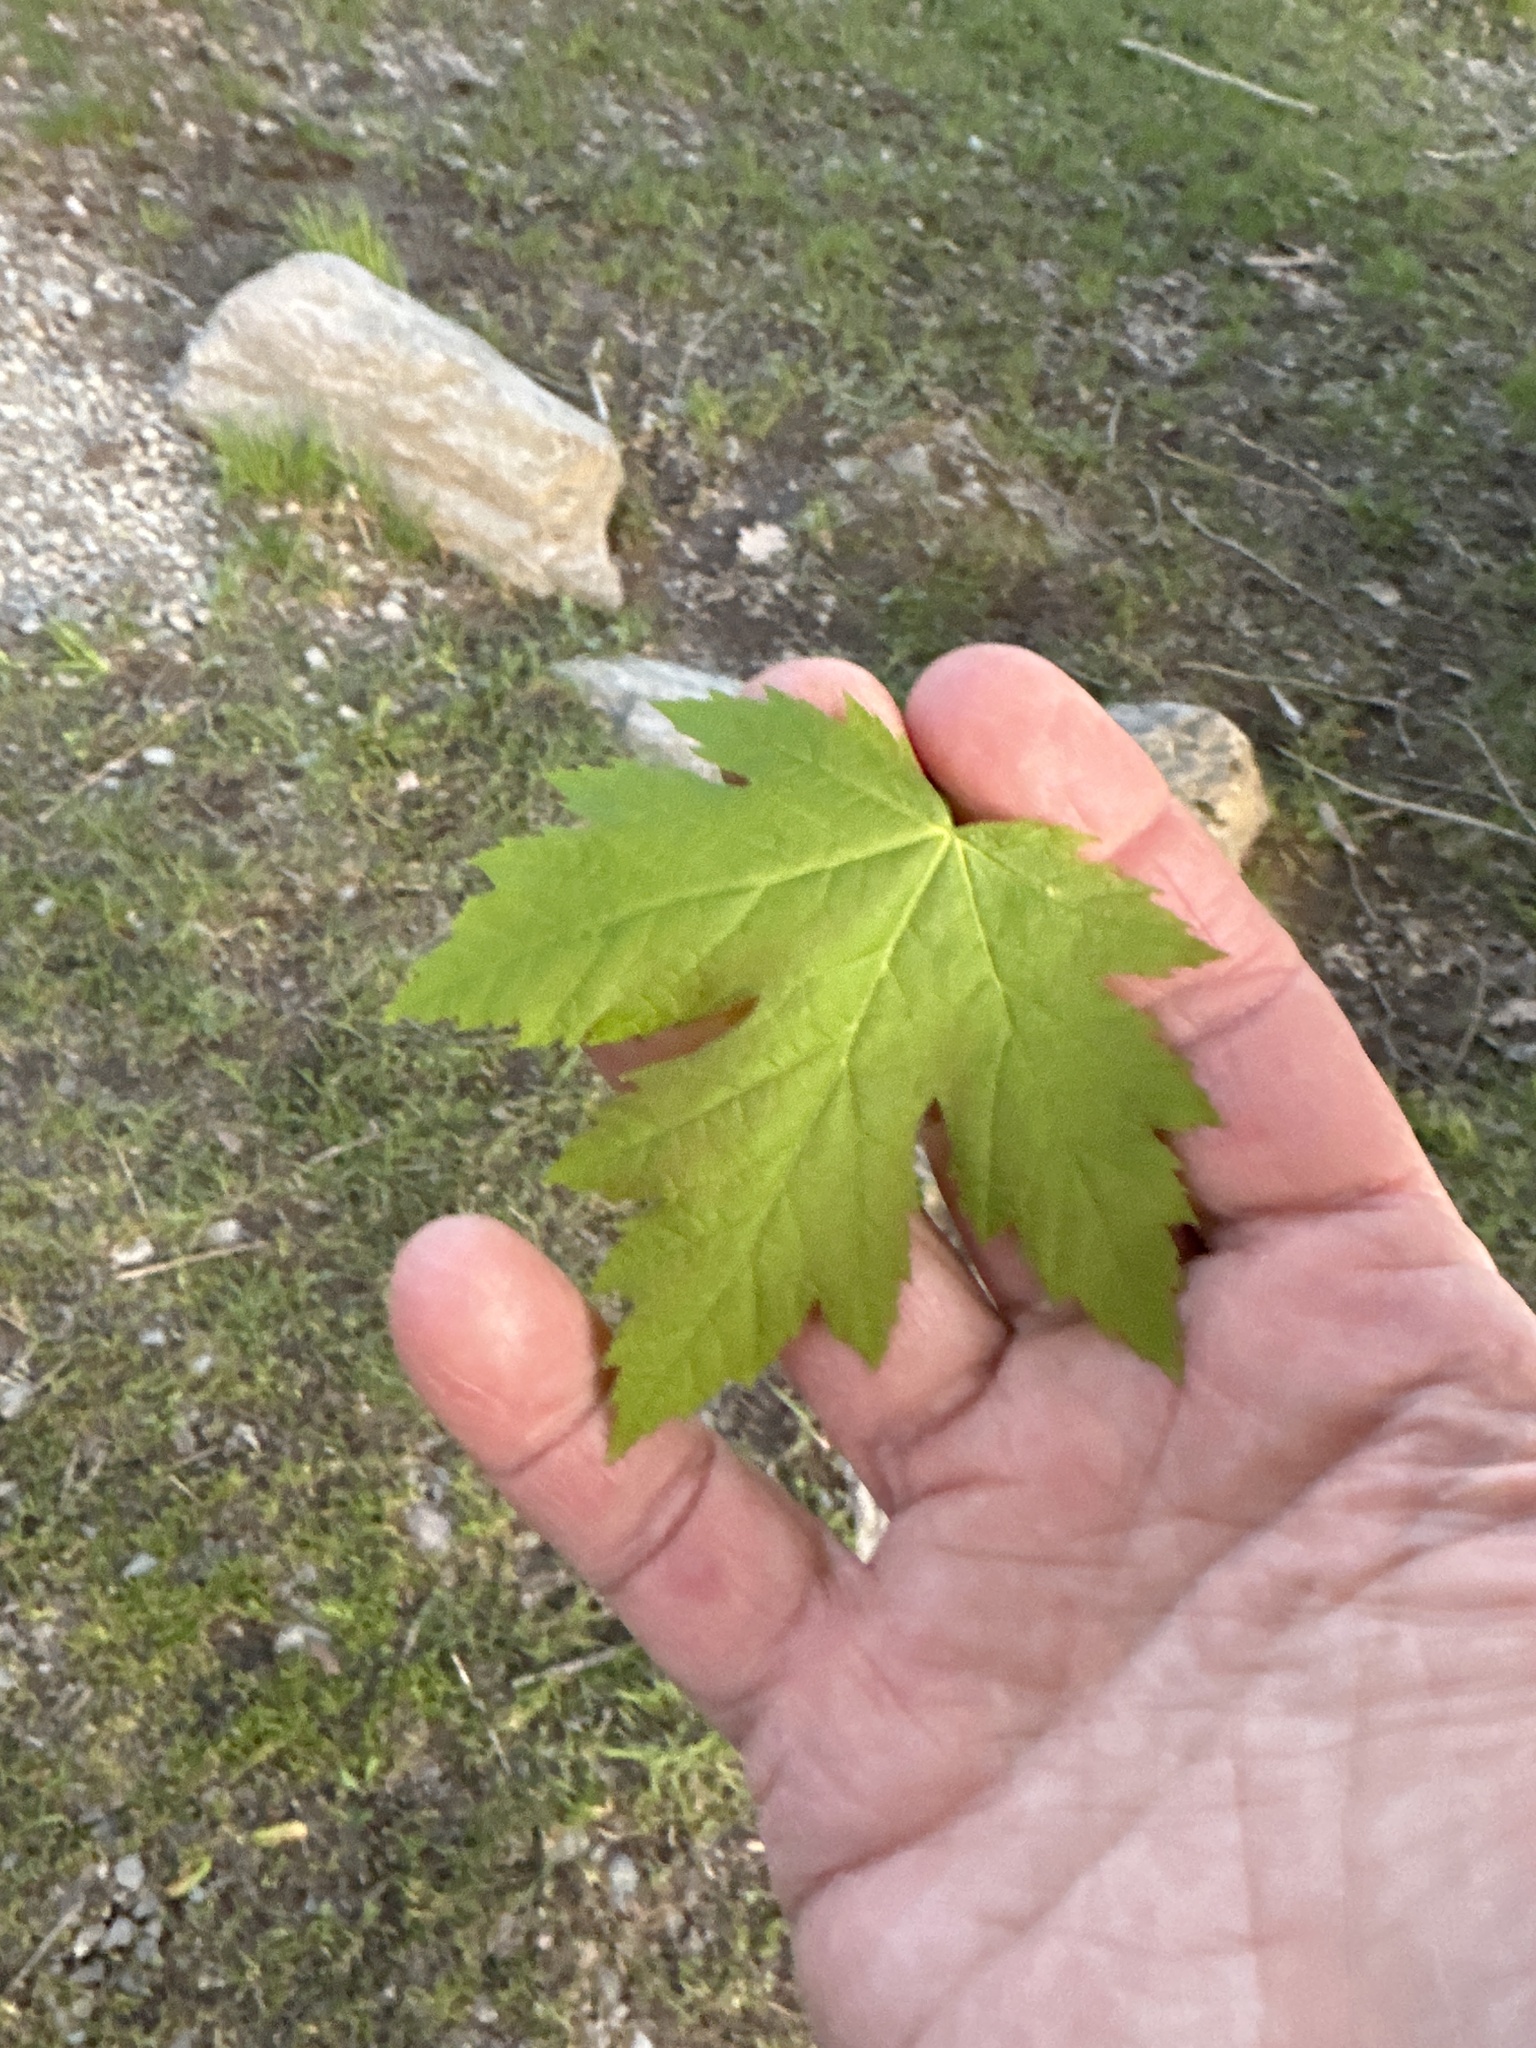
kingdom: Plantae
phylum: Tracheophyta
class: Magnoliopsida
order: Sapindales
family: Sapindaceae
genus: Acer
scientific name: Acer saccharinum
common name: Silver maple
